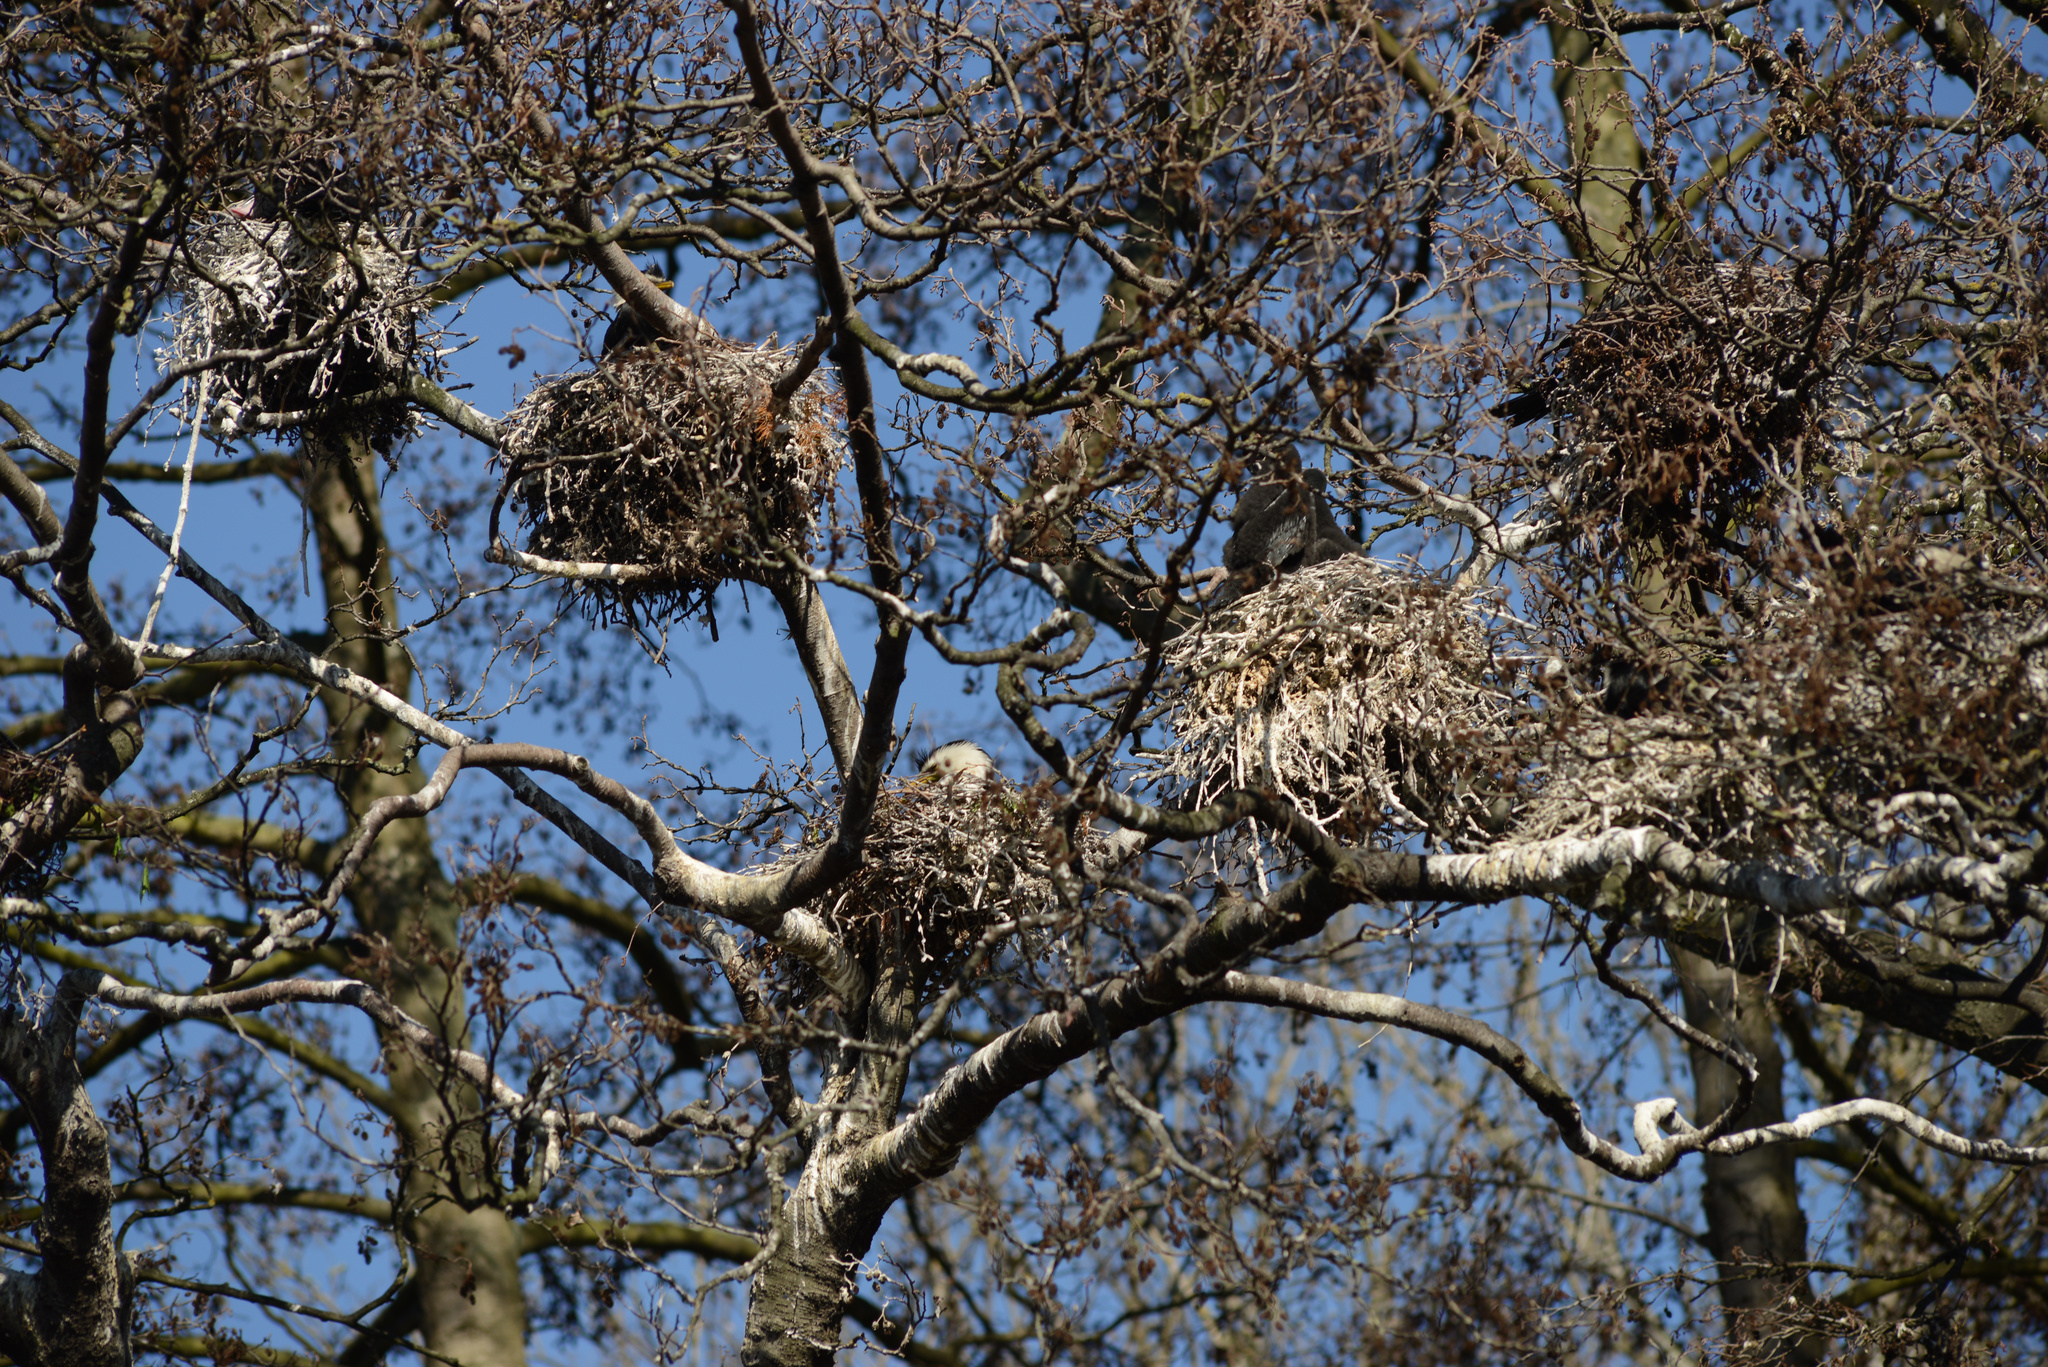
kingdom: Animalia
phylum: Chordata
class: Aves
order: Suliformes
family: Phalacrocoracidae
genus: Microcarbo
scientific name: Microcarbo melanoleucos
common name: Little pied cormorant
